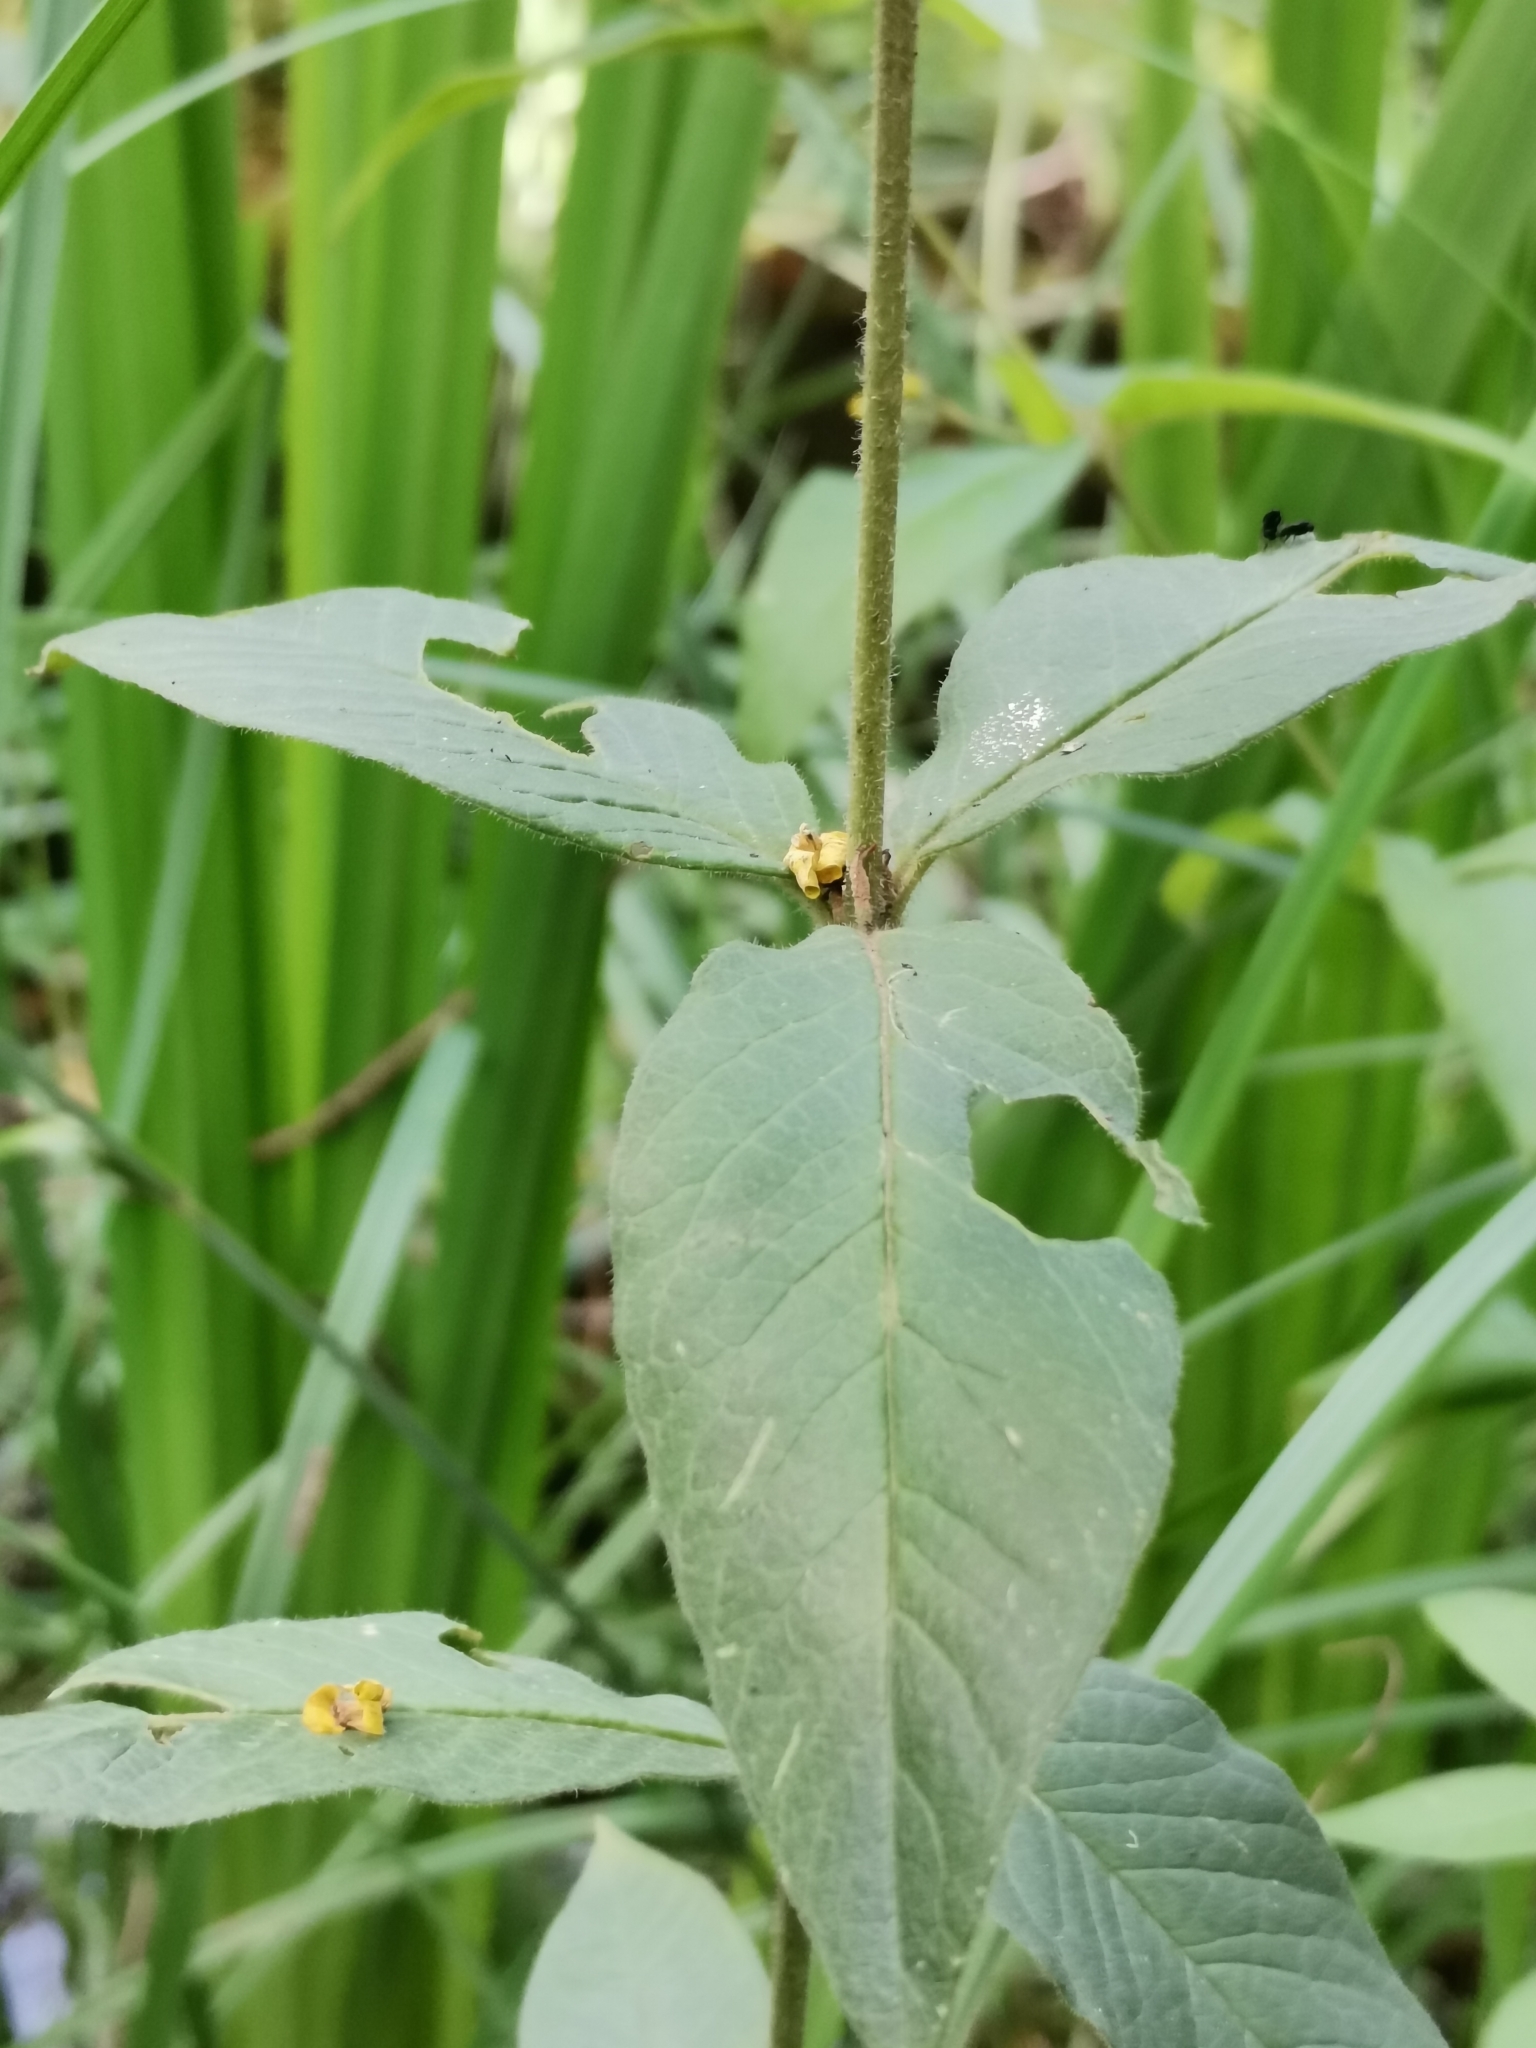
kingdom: Plantae
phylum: Tracheophyta
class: Magnoliopsida
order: Ericales
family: Primulaceae
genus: Lysimachia
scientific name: Lysimachia vulgaris
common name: Yellow loosestrife
